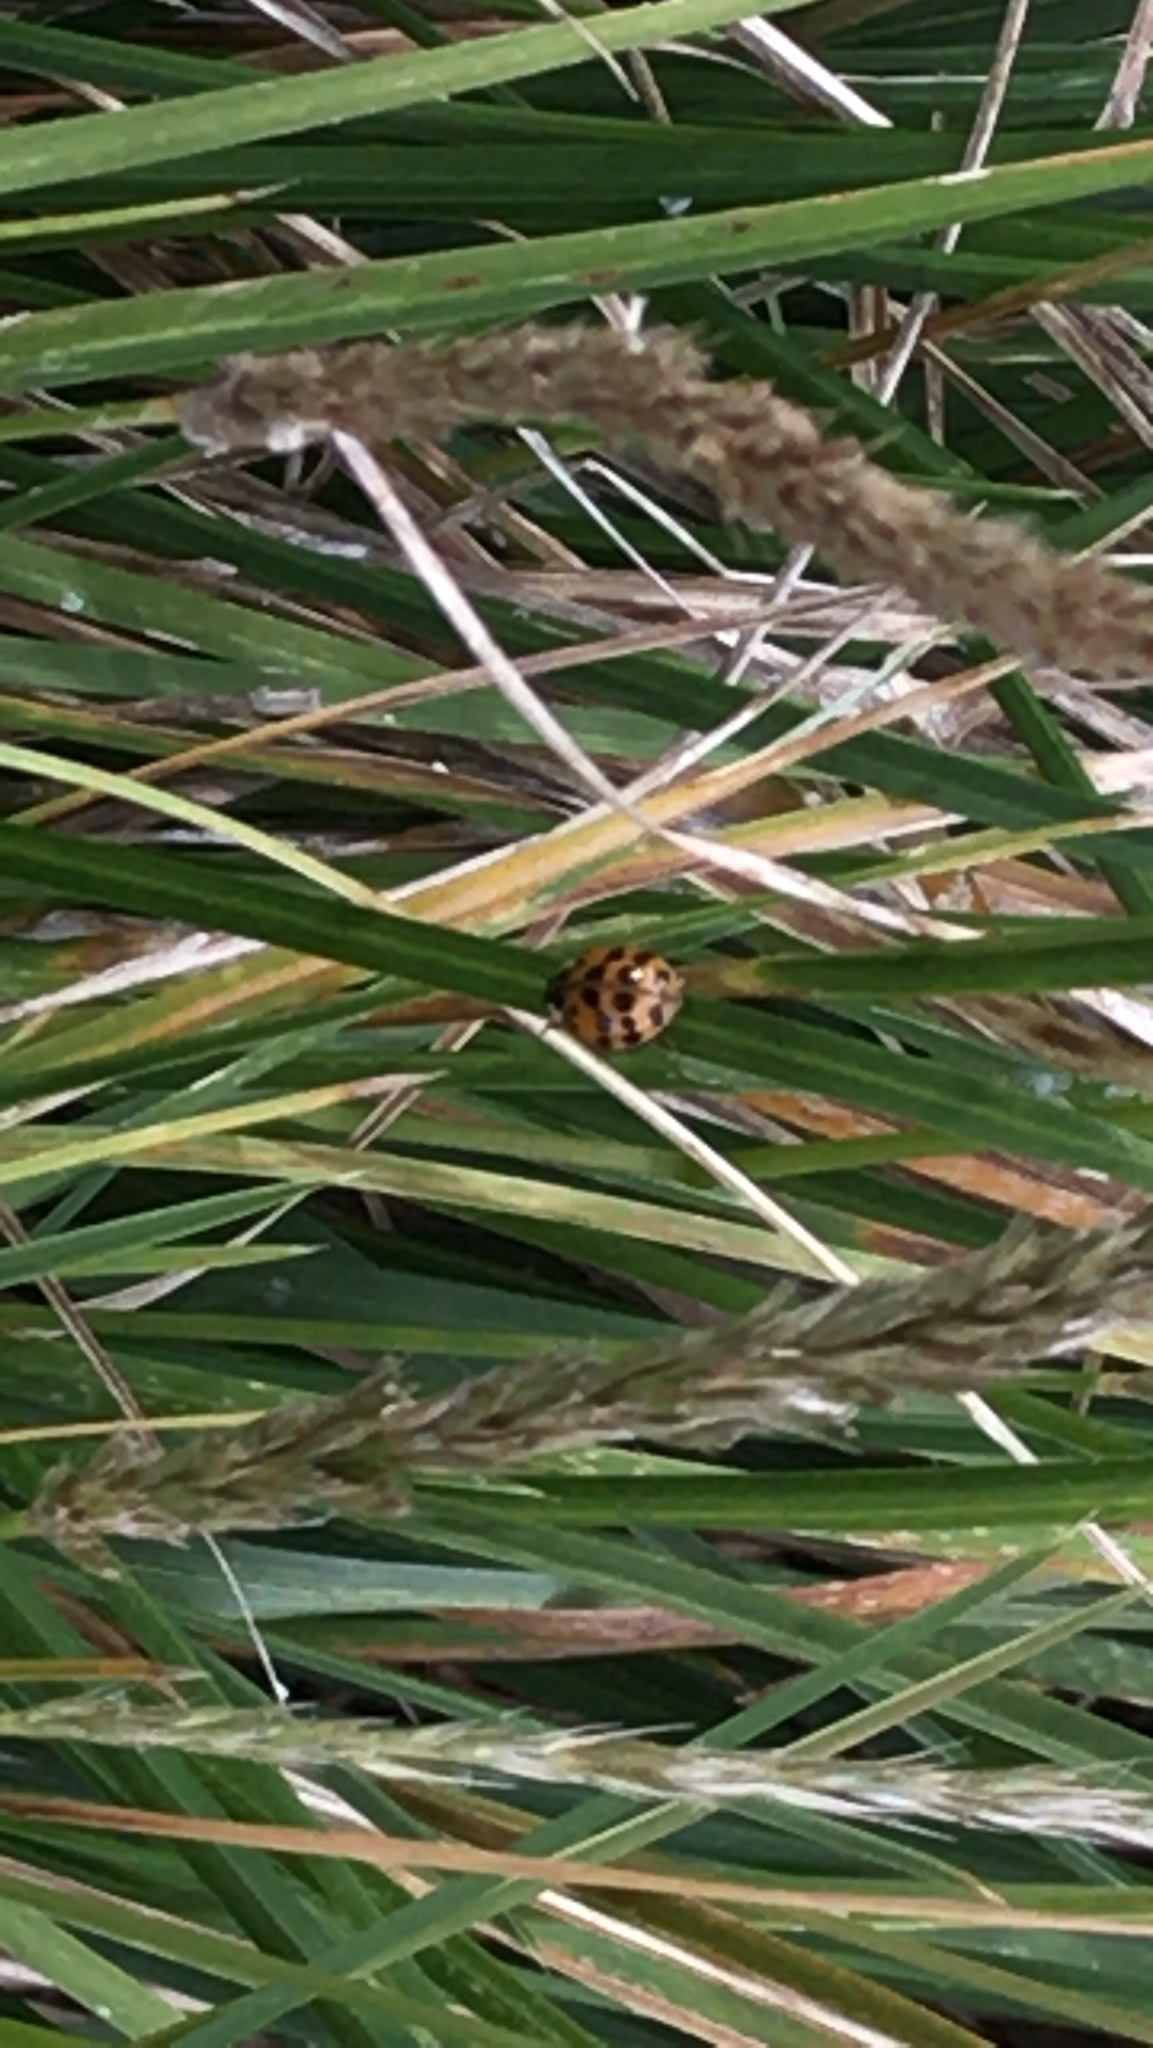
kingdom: Animalia
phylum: Arthropoda
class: Insecta
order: Coleoptera
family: Coccinellidae
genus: Harmonia
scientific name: Harmonia axyridis
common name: Harlequin ladybird
